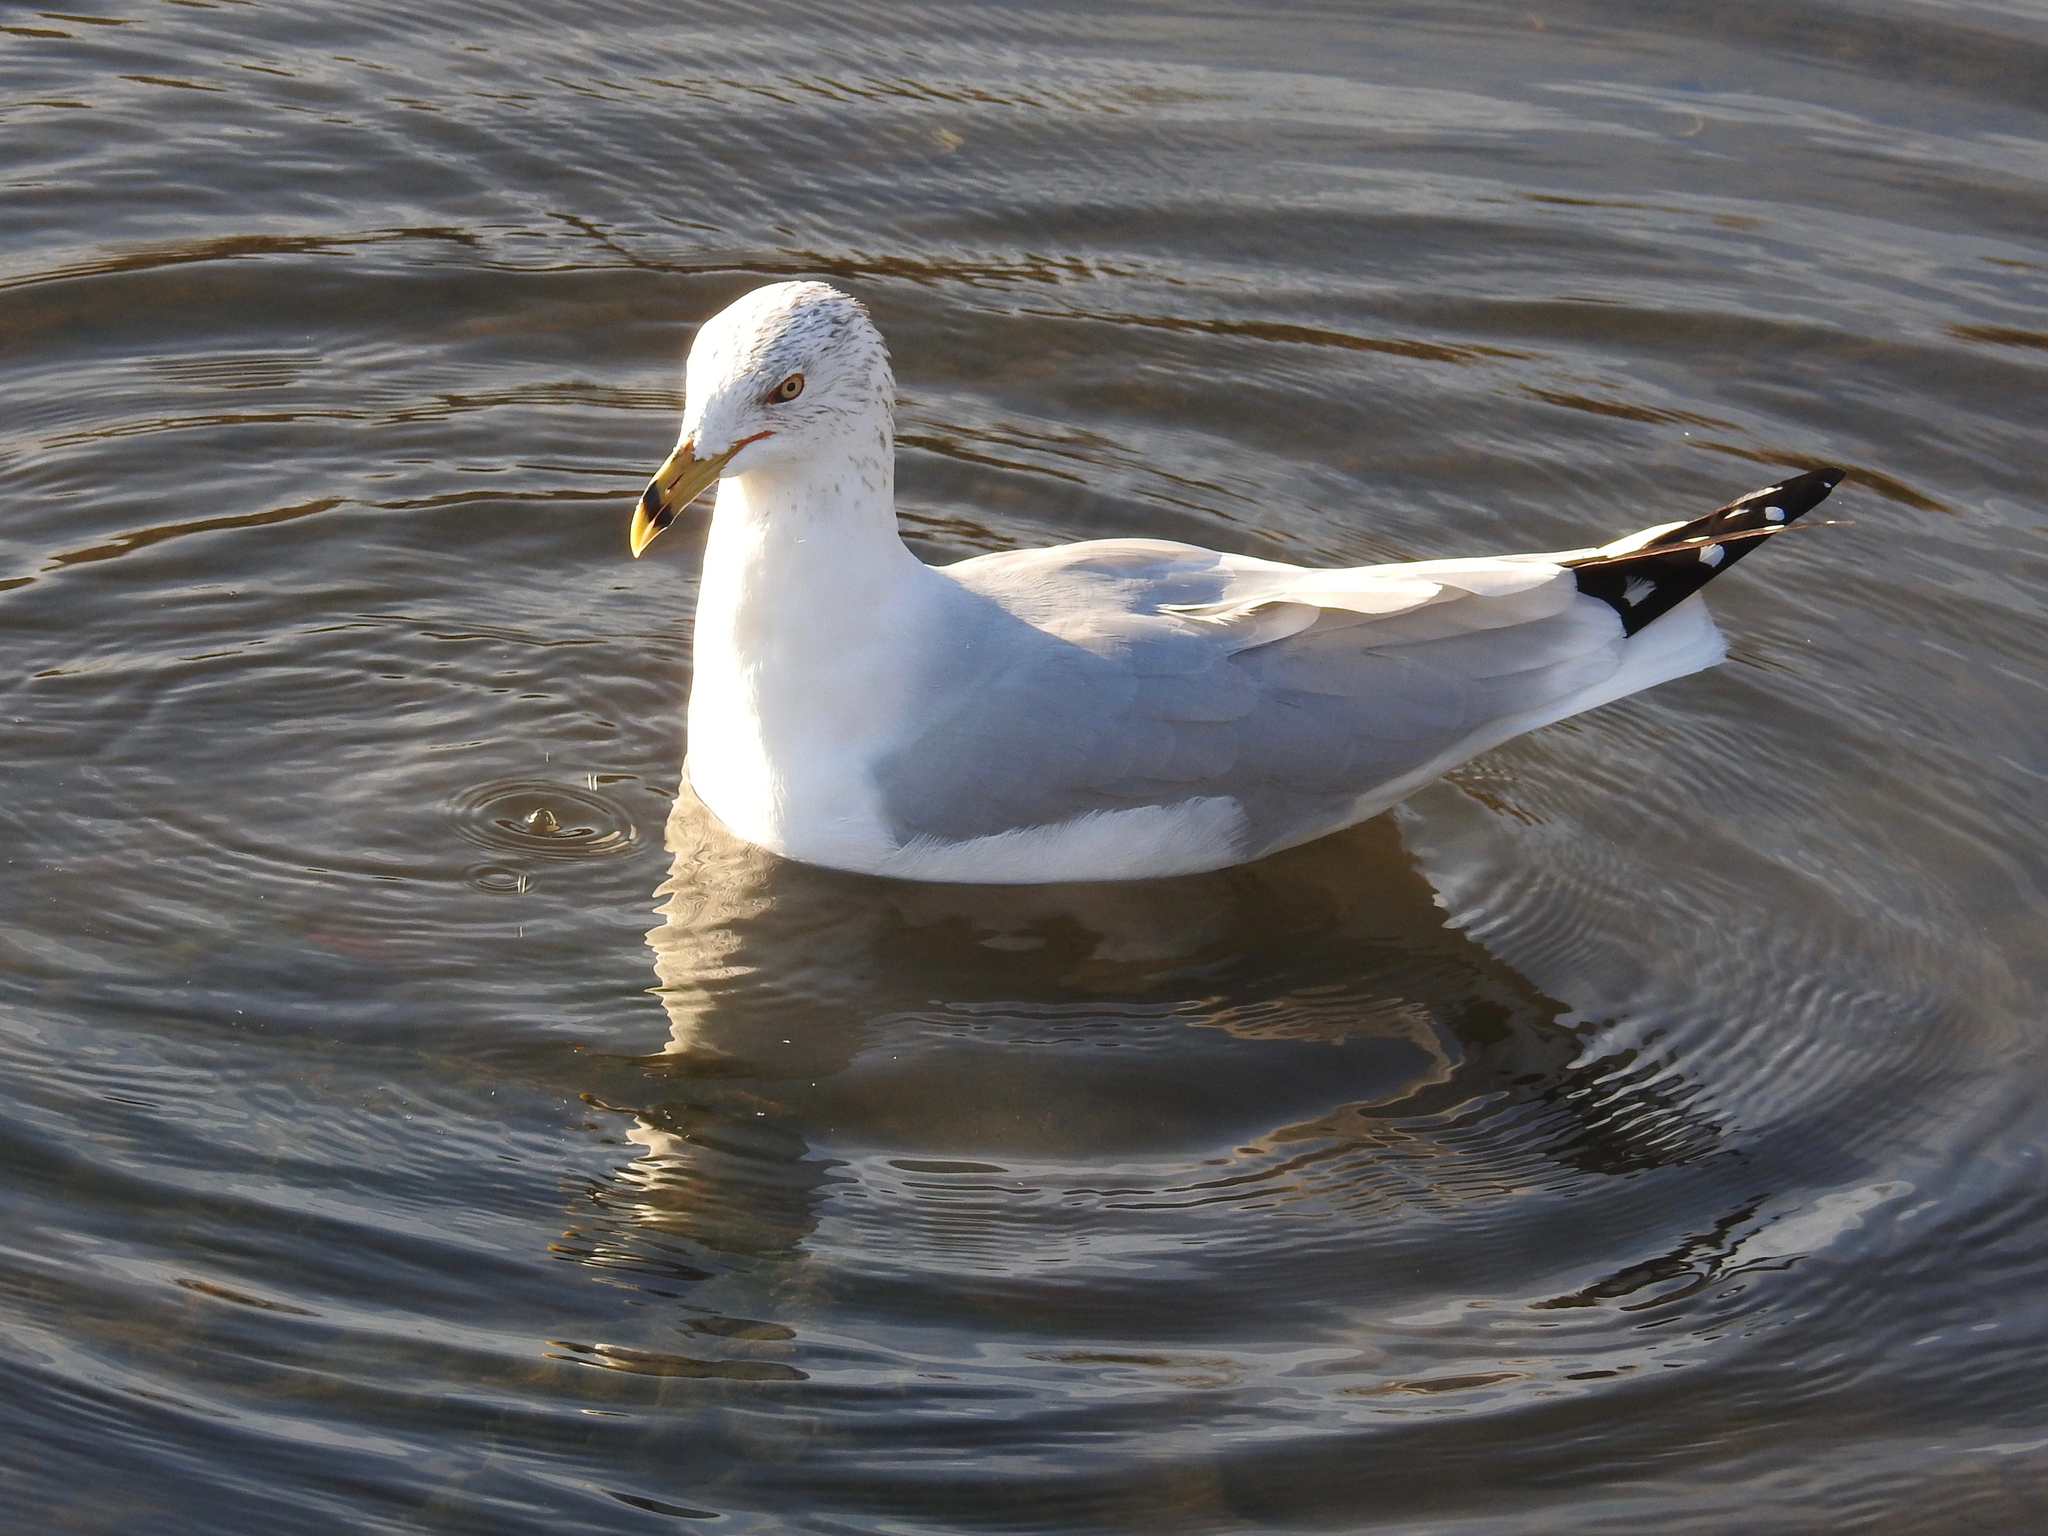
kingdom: Animalia
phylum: Chordata
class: Aves
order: Charadriiformes
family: Laridae
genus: Larus
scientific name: Larus delawarensis
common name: Ring-billed gull
